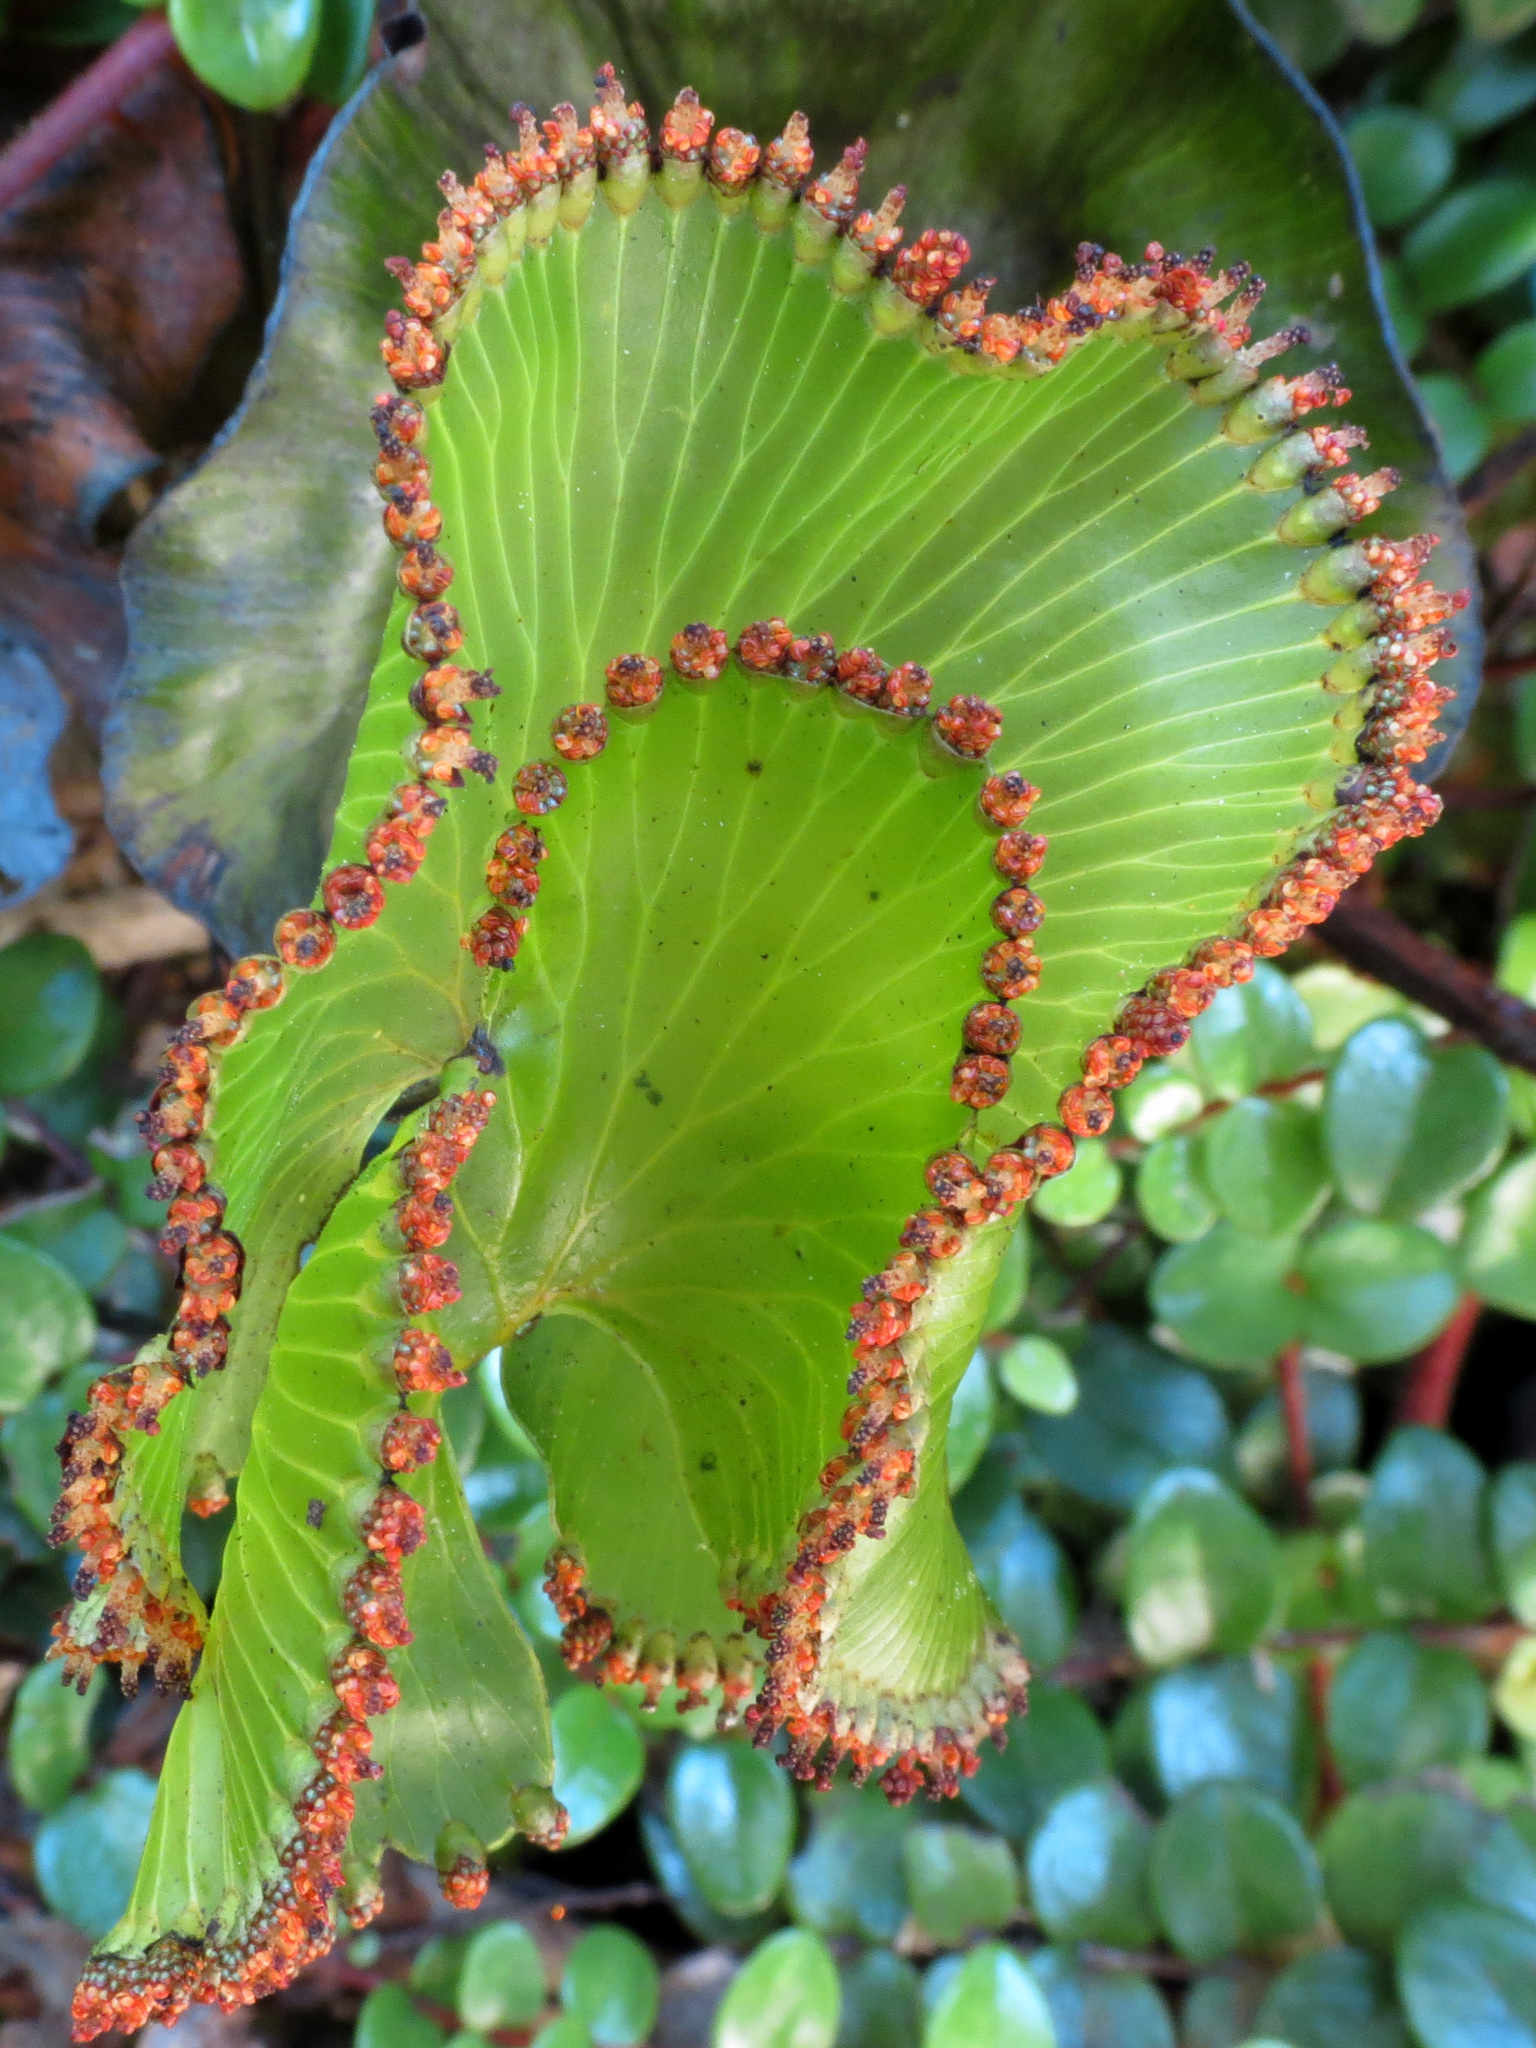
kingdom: Plantae
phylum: Tracheophyta
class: Polypodiopsida
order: Hymenophyllales
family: Hymenophyllaceae
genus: Hymenophyllum
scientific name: Hymenophyllum nephrophyllum
